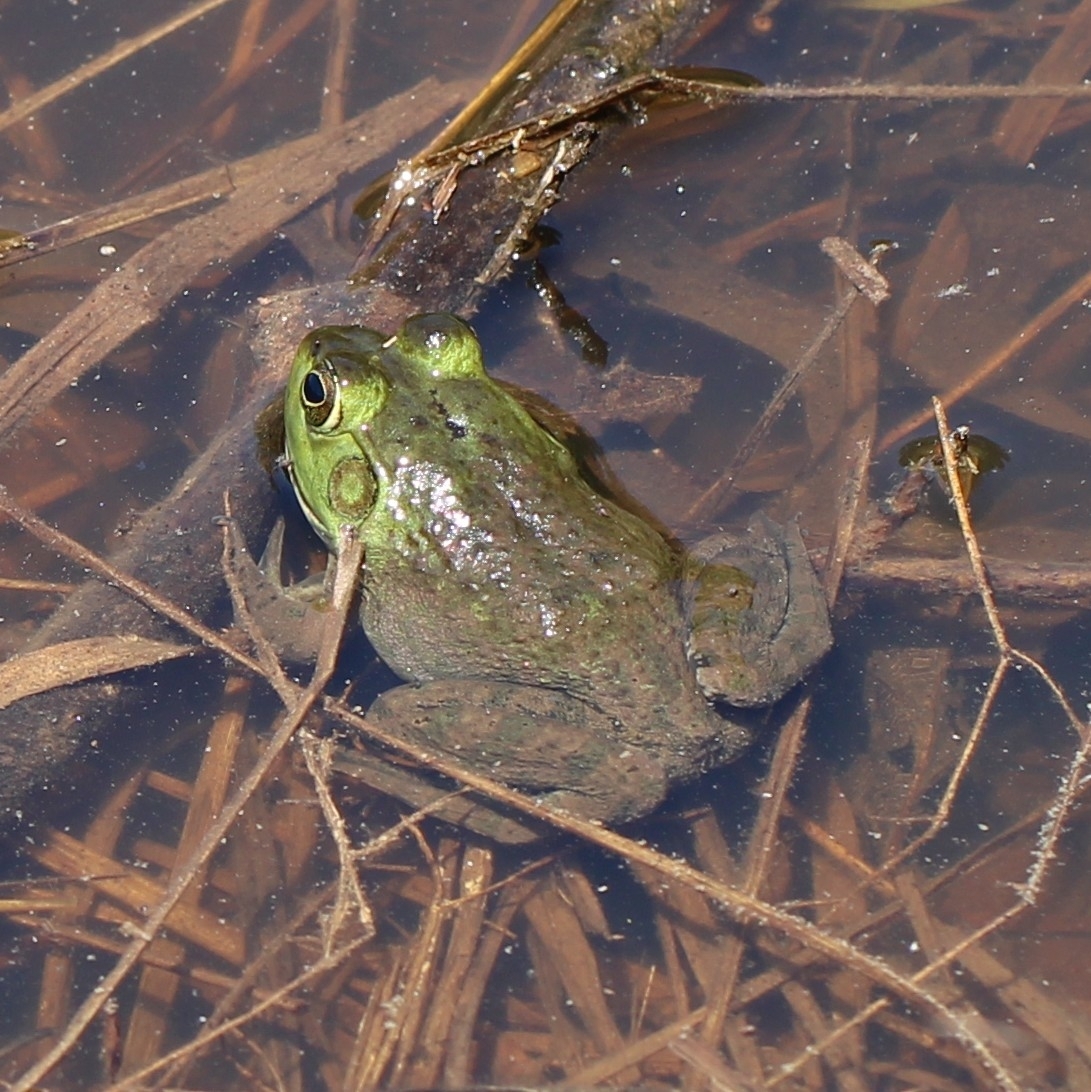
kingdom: Animalia
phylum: Chordata
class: Amphibia
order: Anura
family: Ranidae
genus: Lithobates
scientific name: Lithobates catesbeianus
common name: American bullfrog
